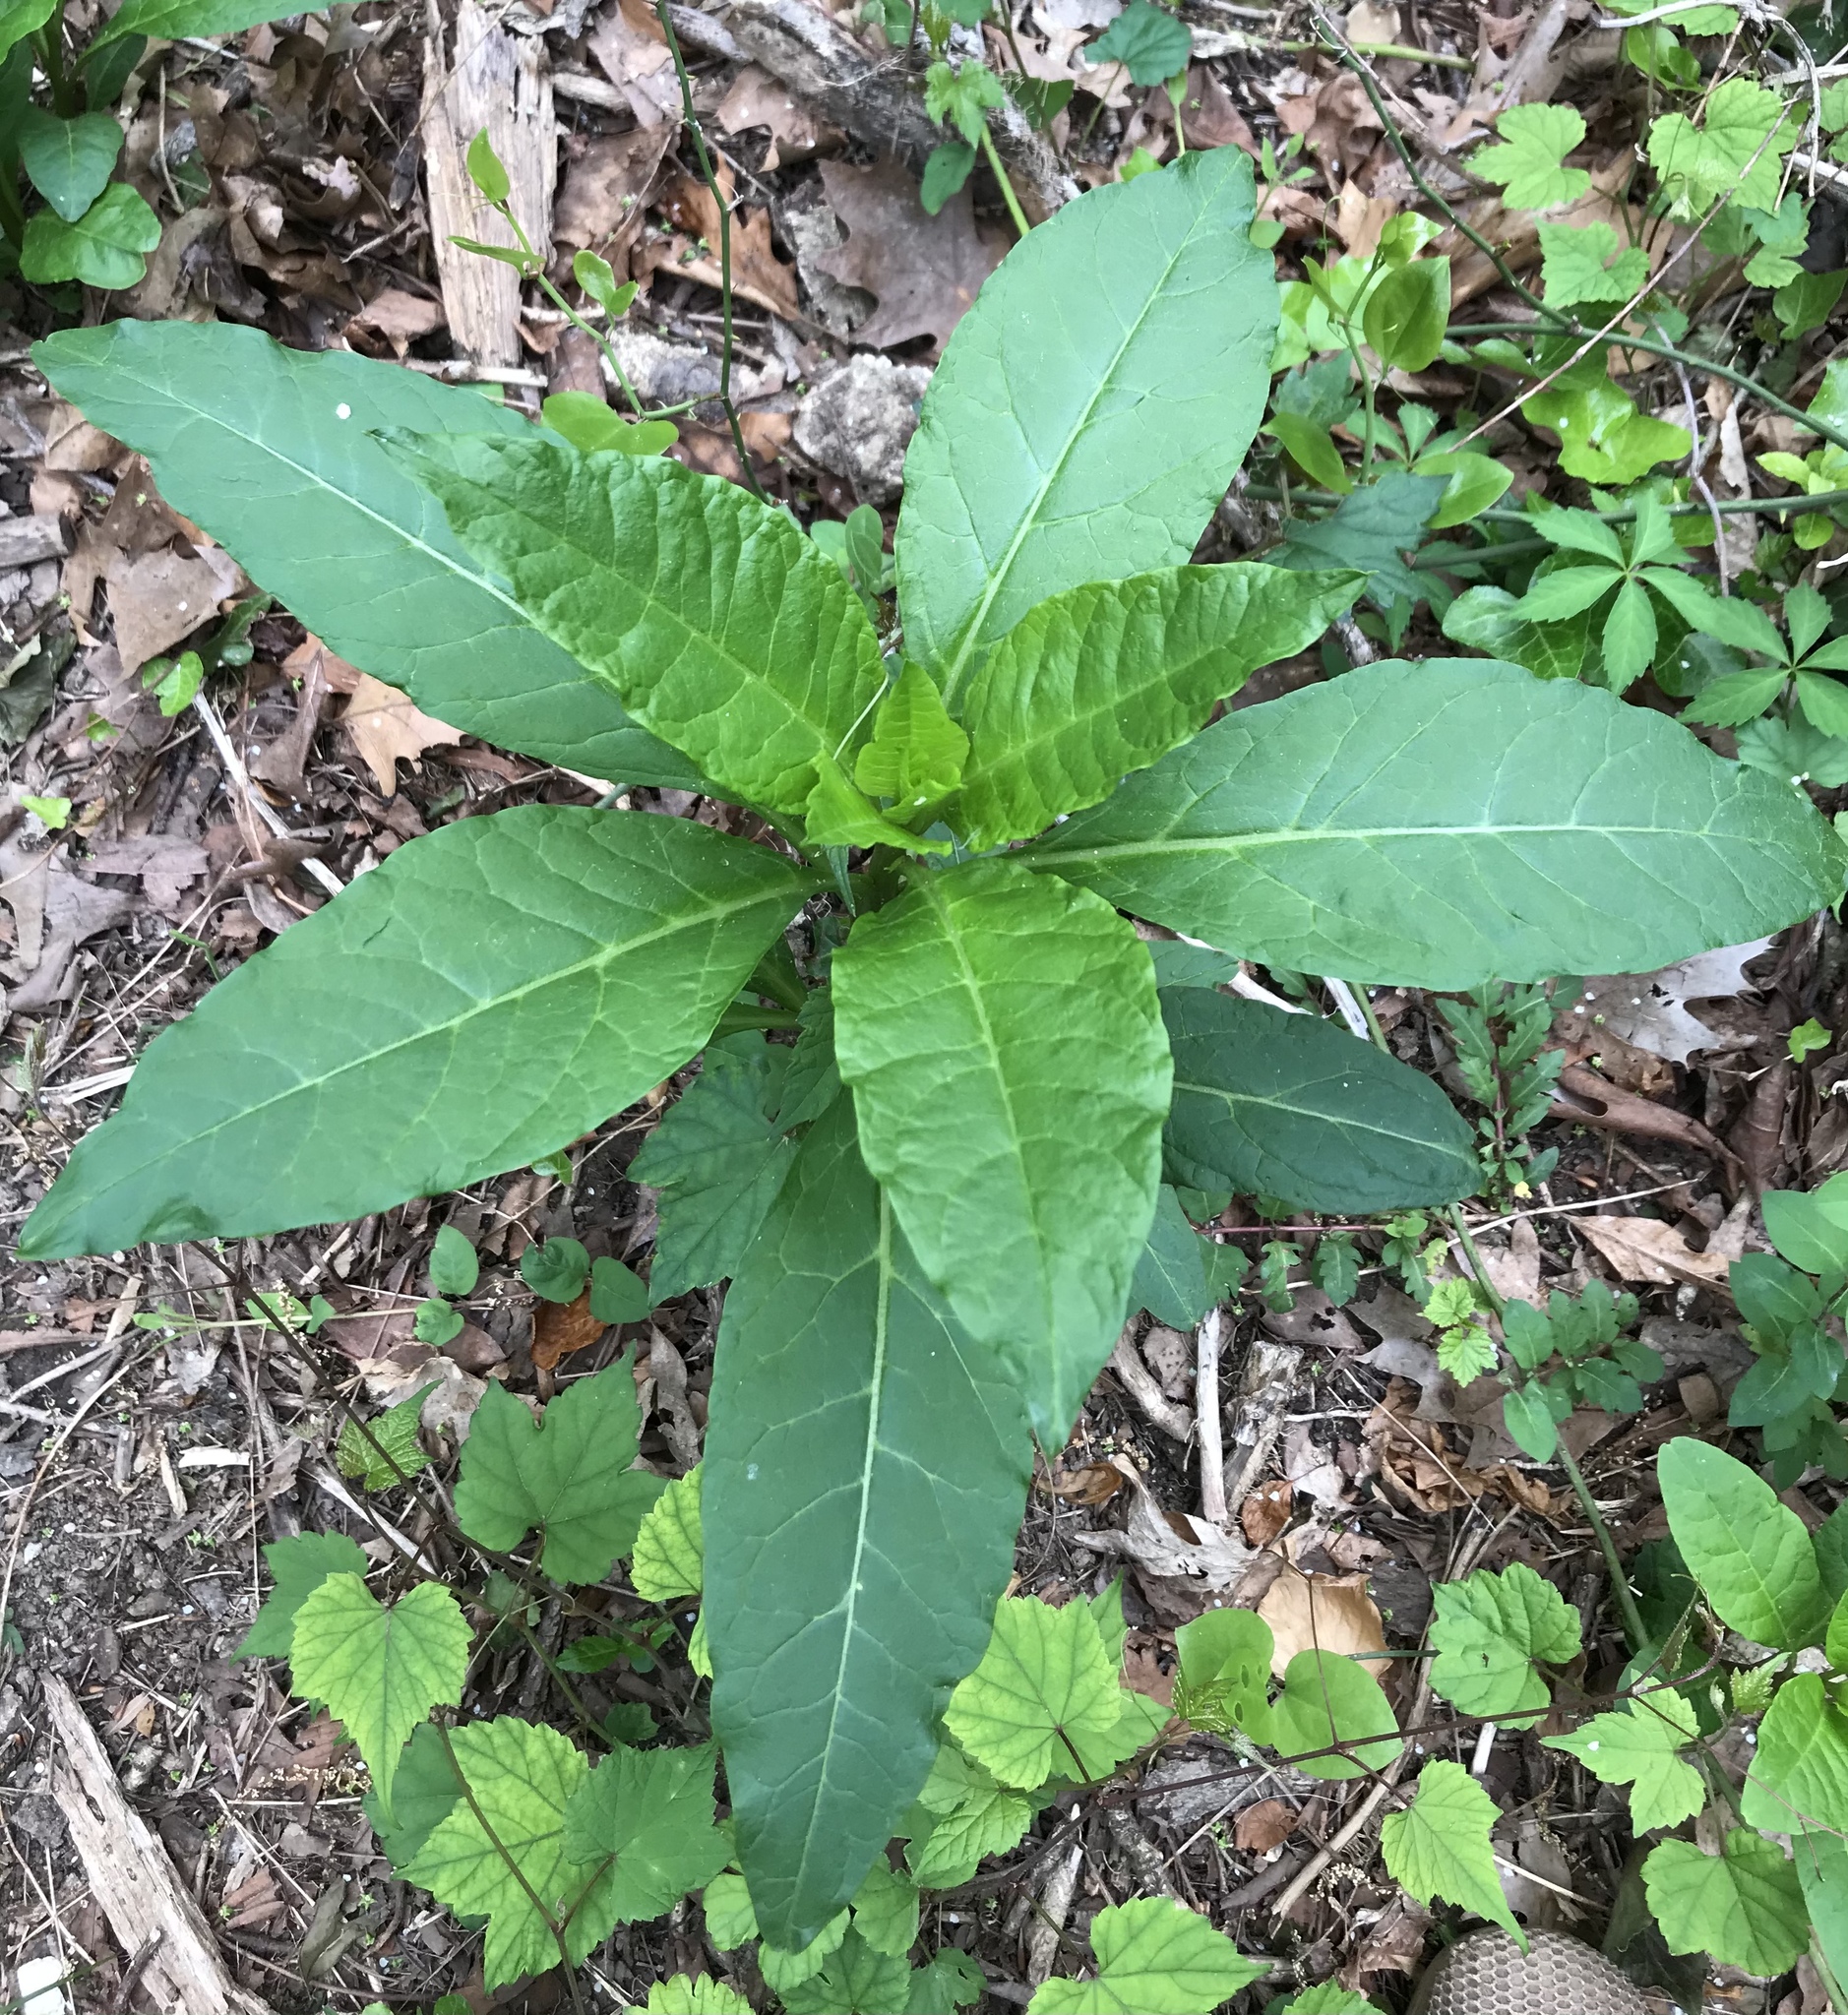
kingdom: Plantae
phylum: Tracheophyta
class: Magnoliopsida
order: Caryophyllales
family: Phytolaccaceae
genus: Phytolacca
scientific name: Phytolacca americana
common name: American pokeweed
